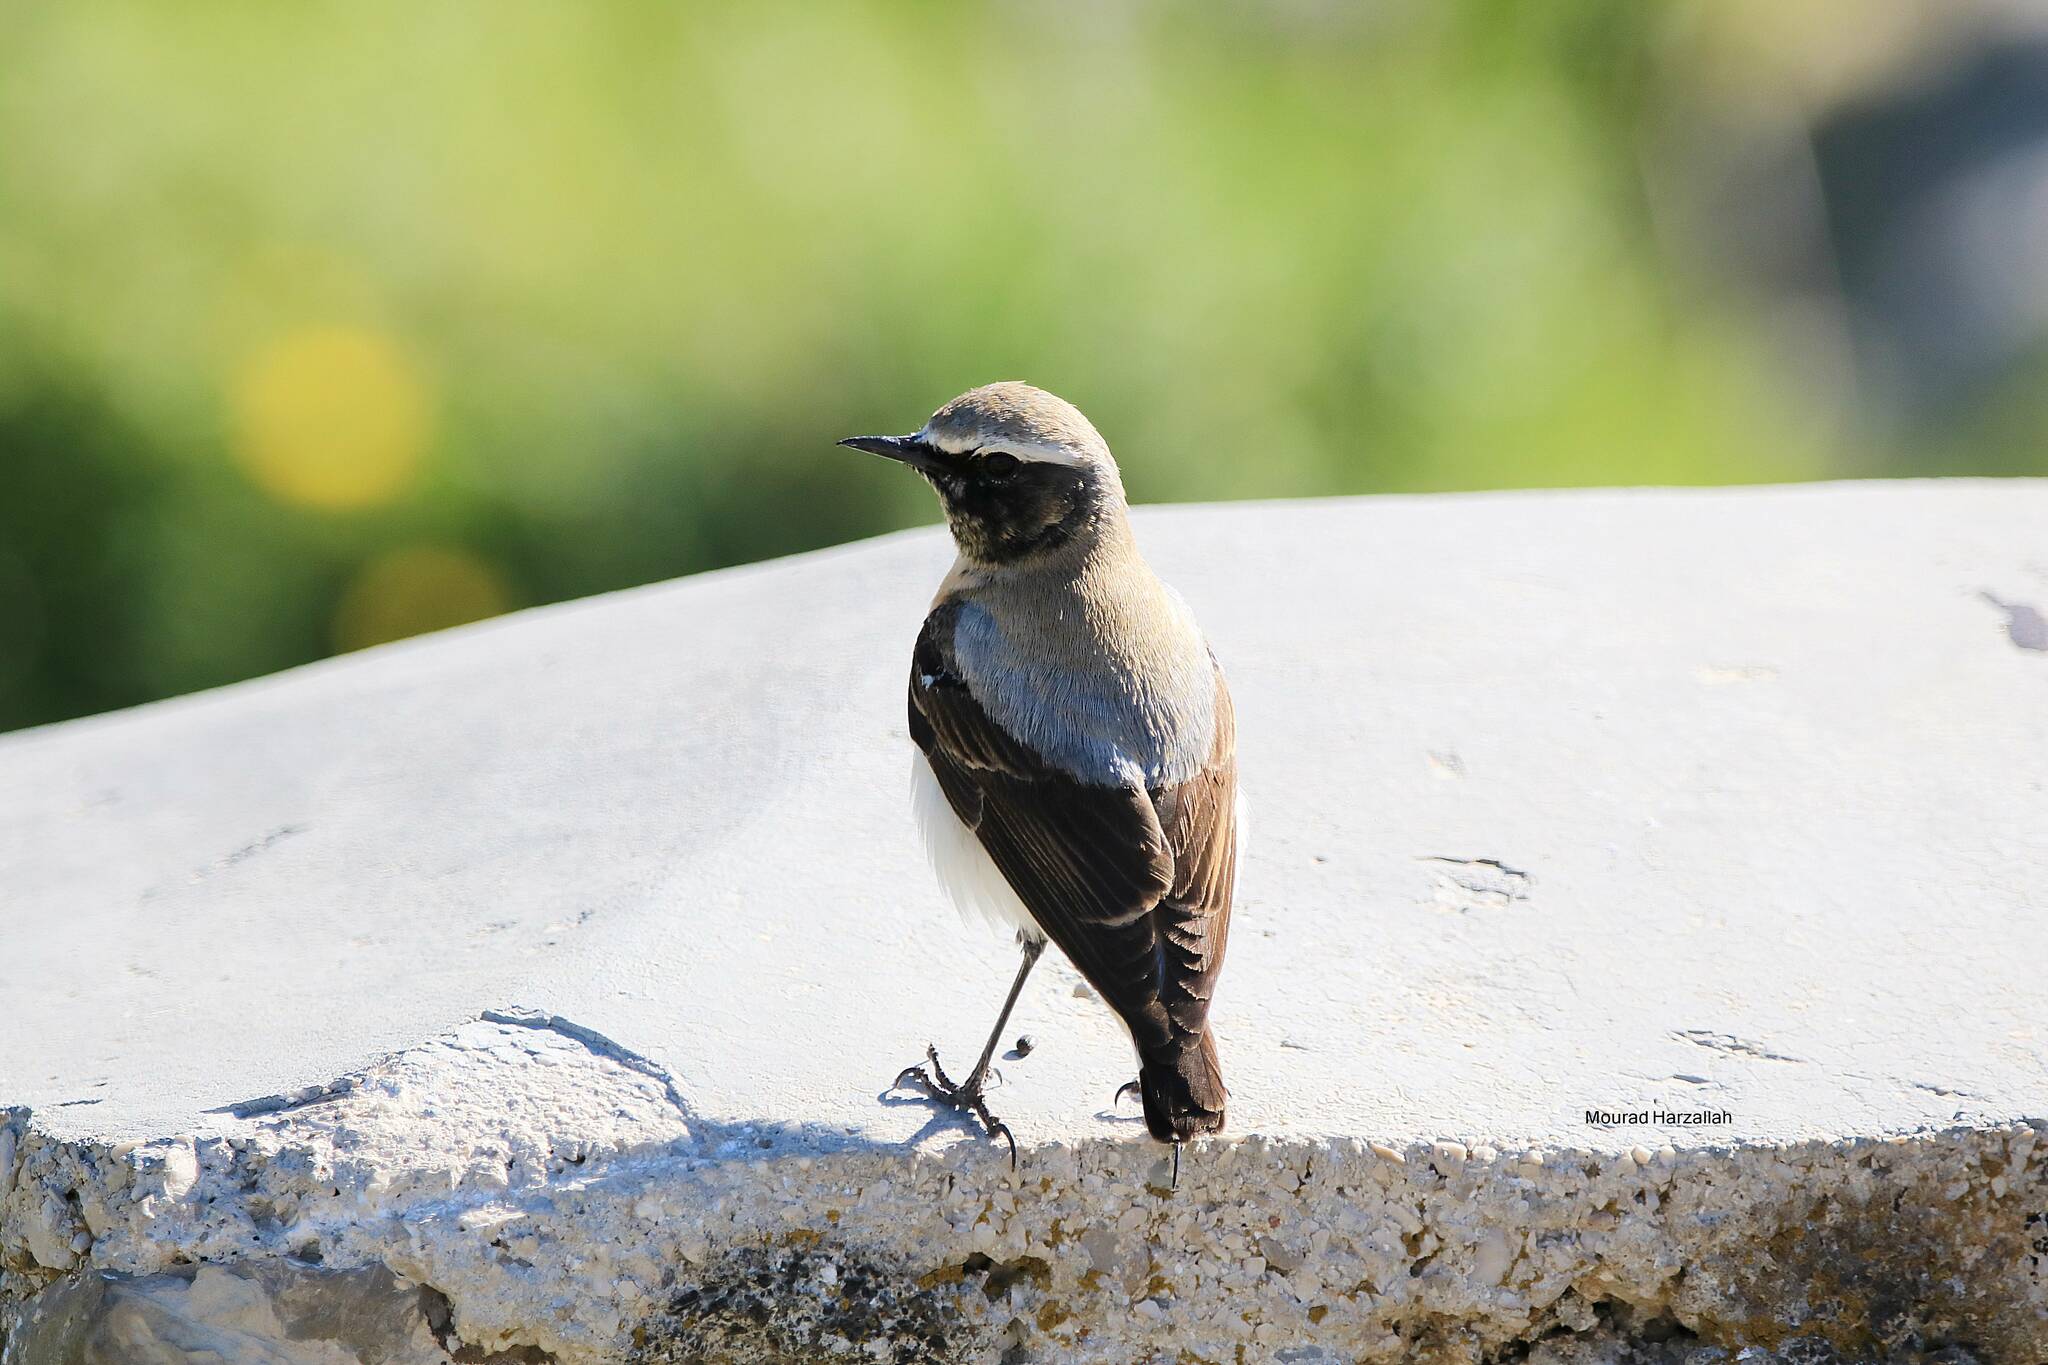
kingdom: Animalia
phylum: Chordata
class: Aves
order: Passeriformes
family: Muscicapidae
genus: Oenanthe
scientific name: Oenanthe oenanthe
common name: Northern wheatear
